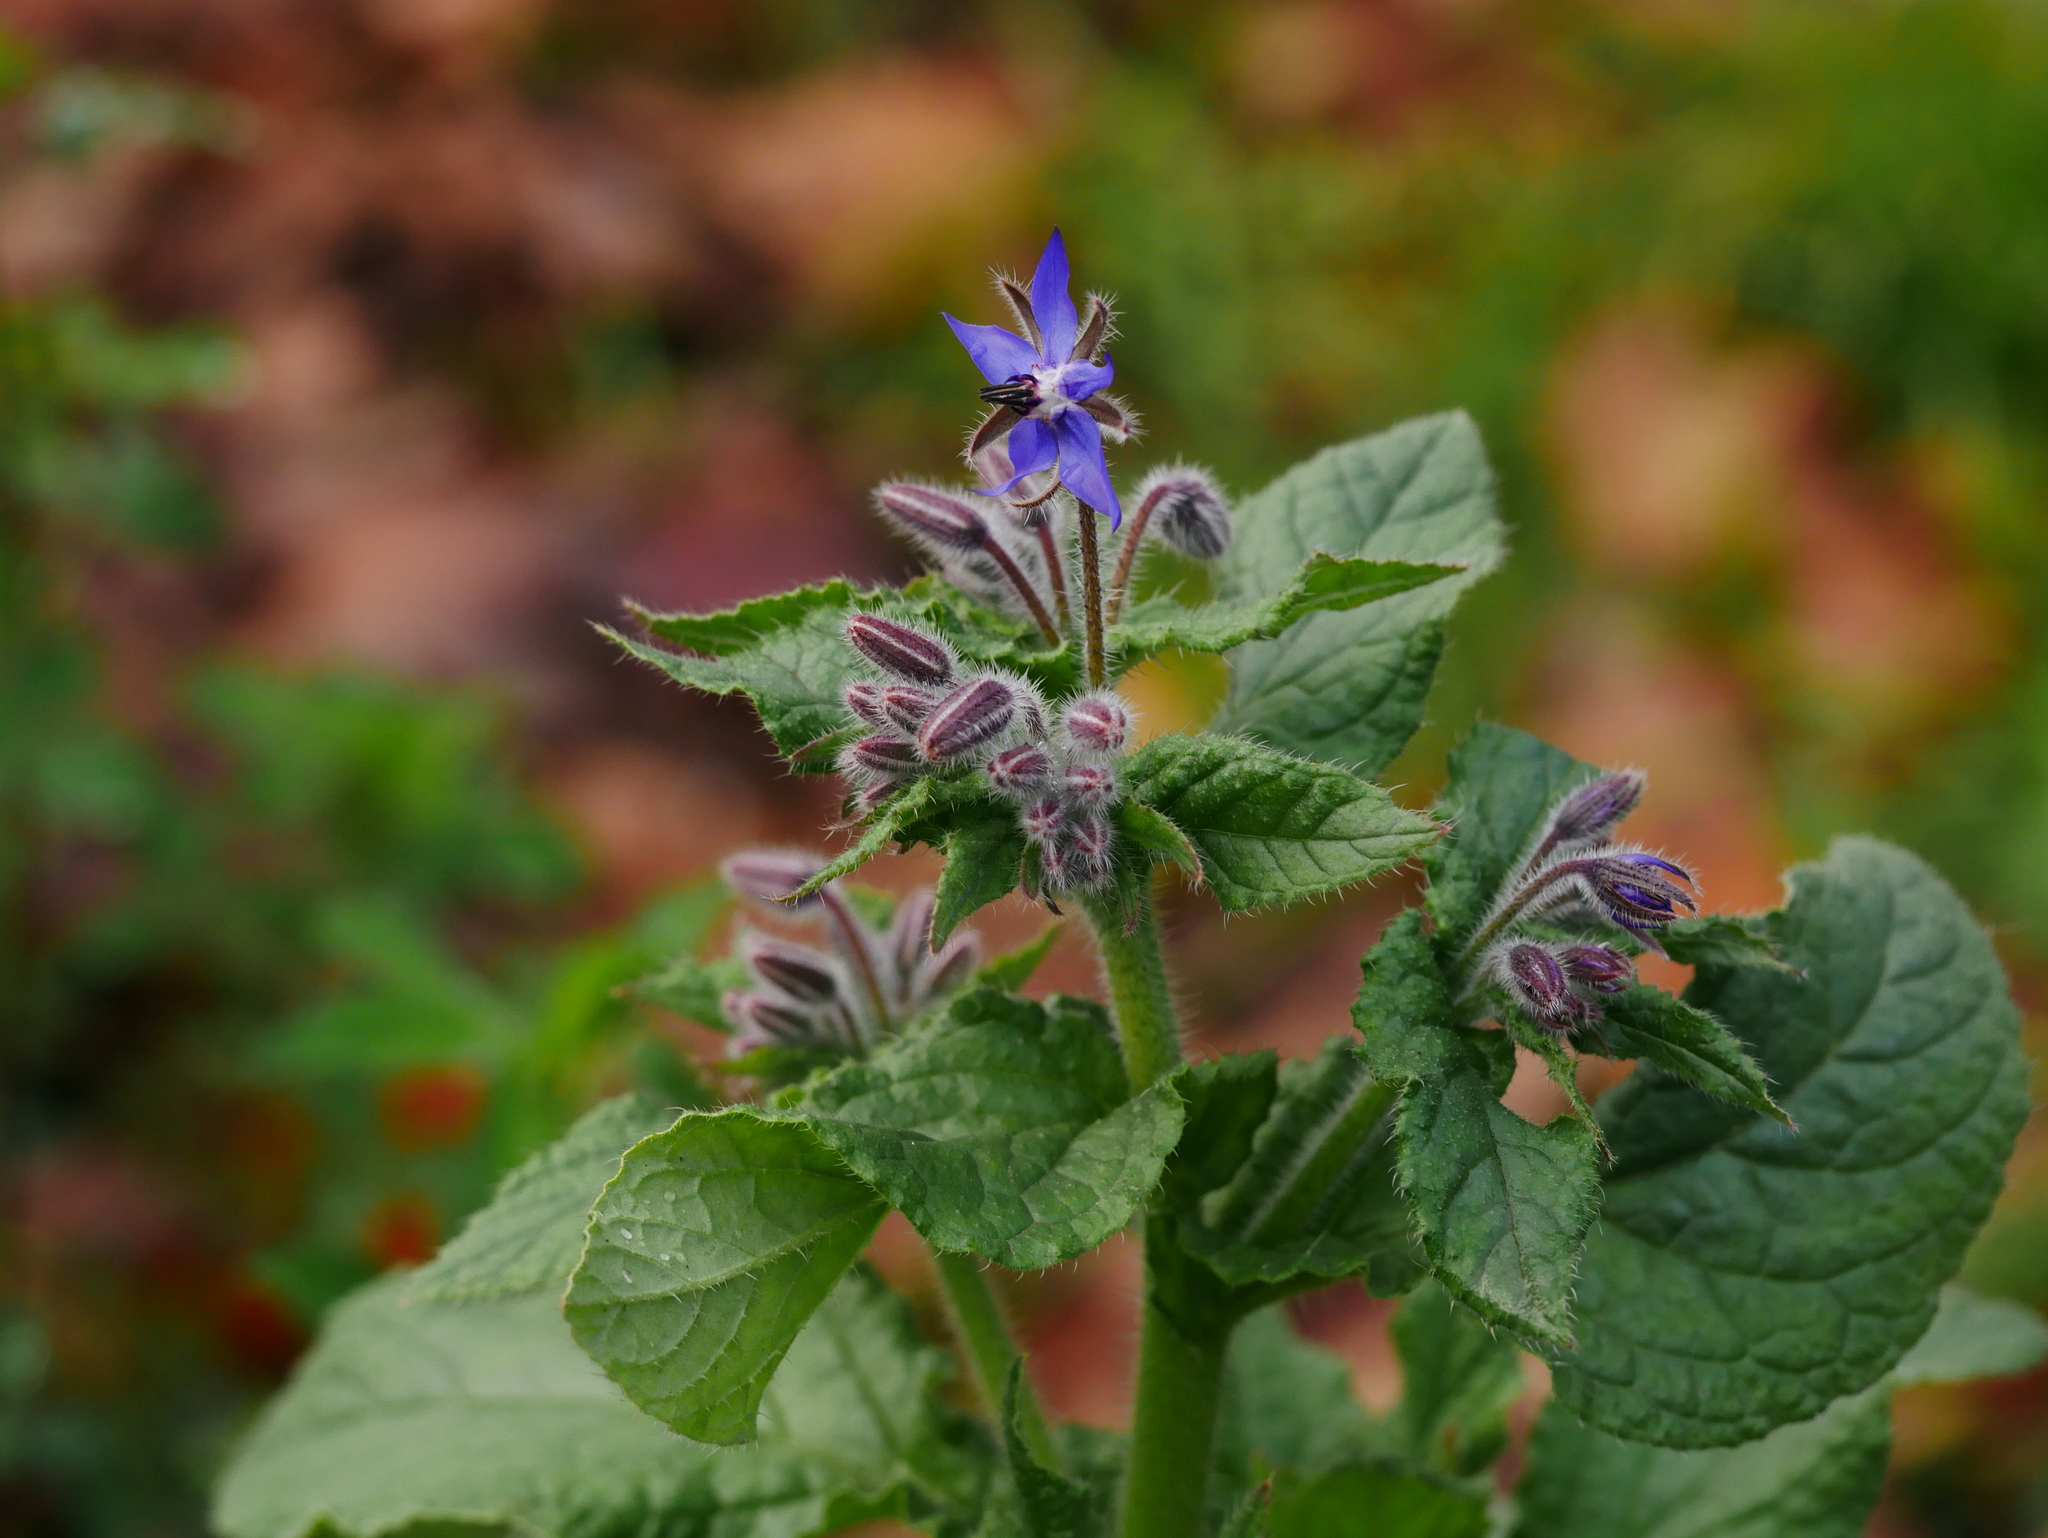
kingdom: Plantae
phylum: Tracheophyta
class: Magnoliopsida
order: Boraginales
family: Boraginaceae
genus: Borago
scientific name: Borago officinalis
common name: Borage
